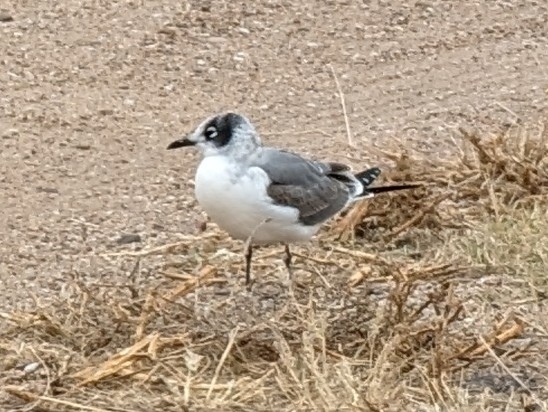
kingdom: Animalia
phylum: Chordata
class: Aves
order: Charadriiformes
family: Laridae
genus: Leucophaeus
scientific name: Leucophaeus pipixcan
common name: Franklin's gull
